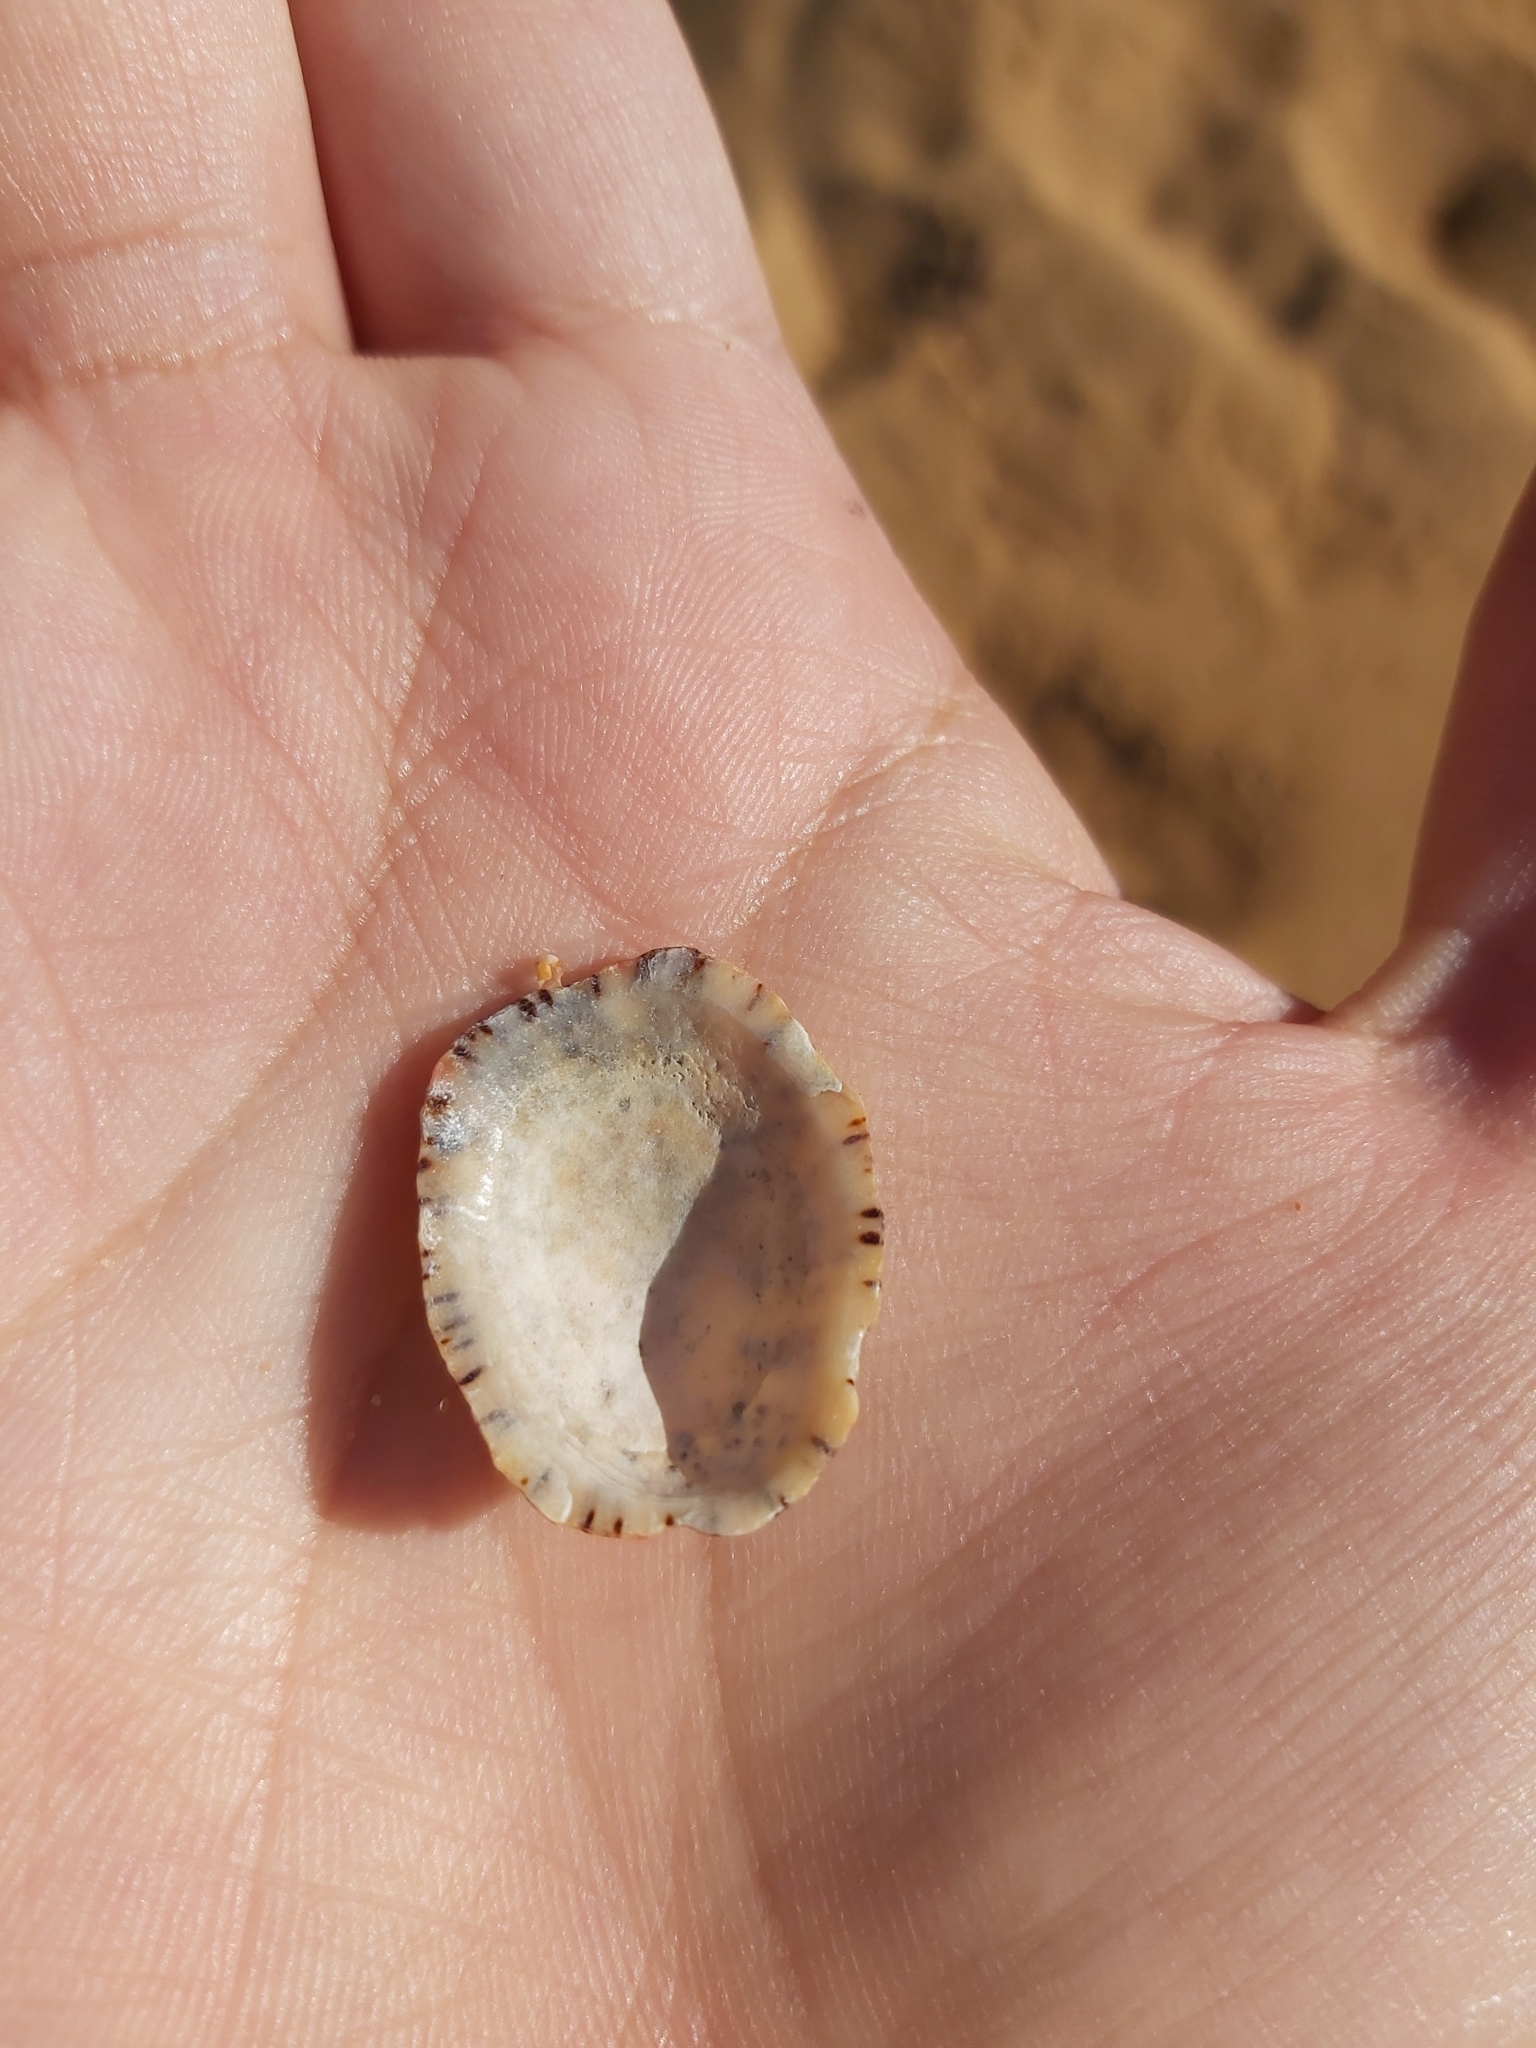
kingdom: Animalia
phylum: Mollusca
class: Gastropoda
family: Nacellidae
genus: Cellana
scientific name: Cellana tramoserica
